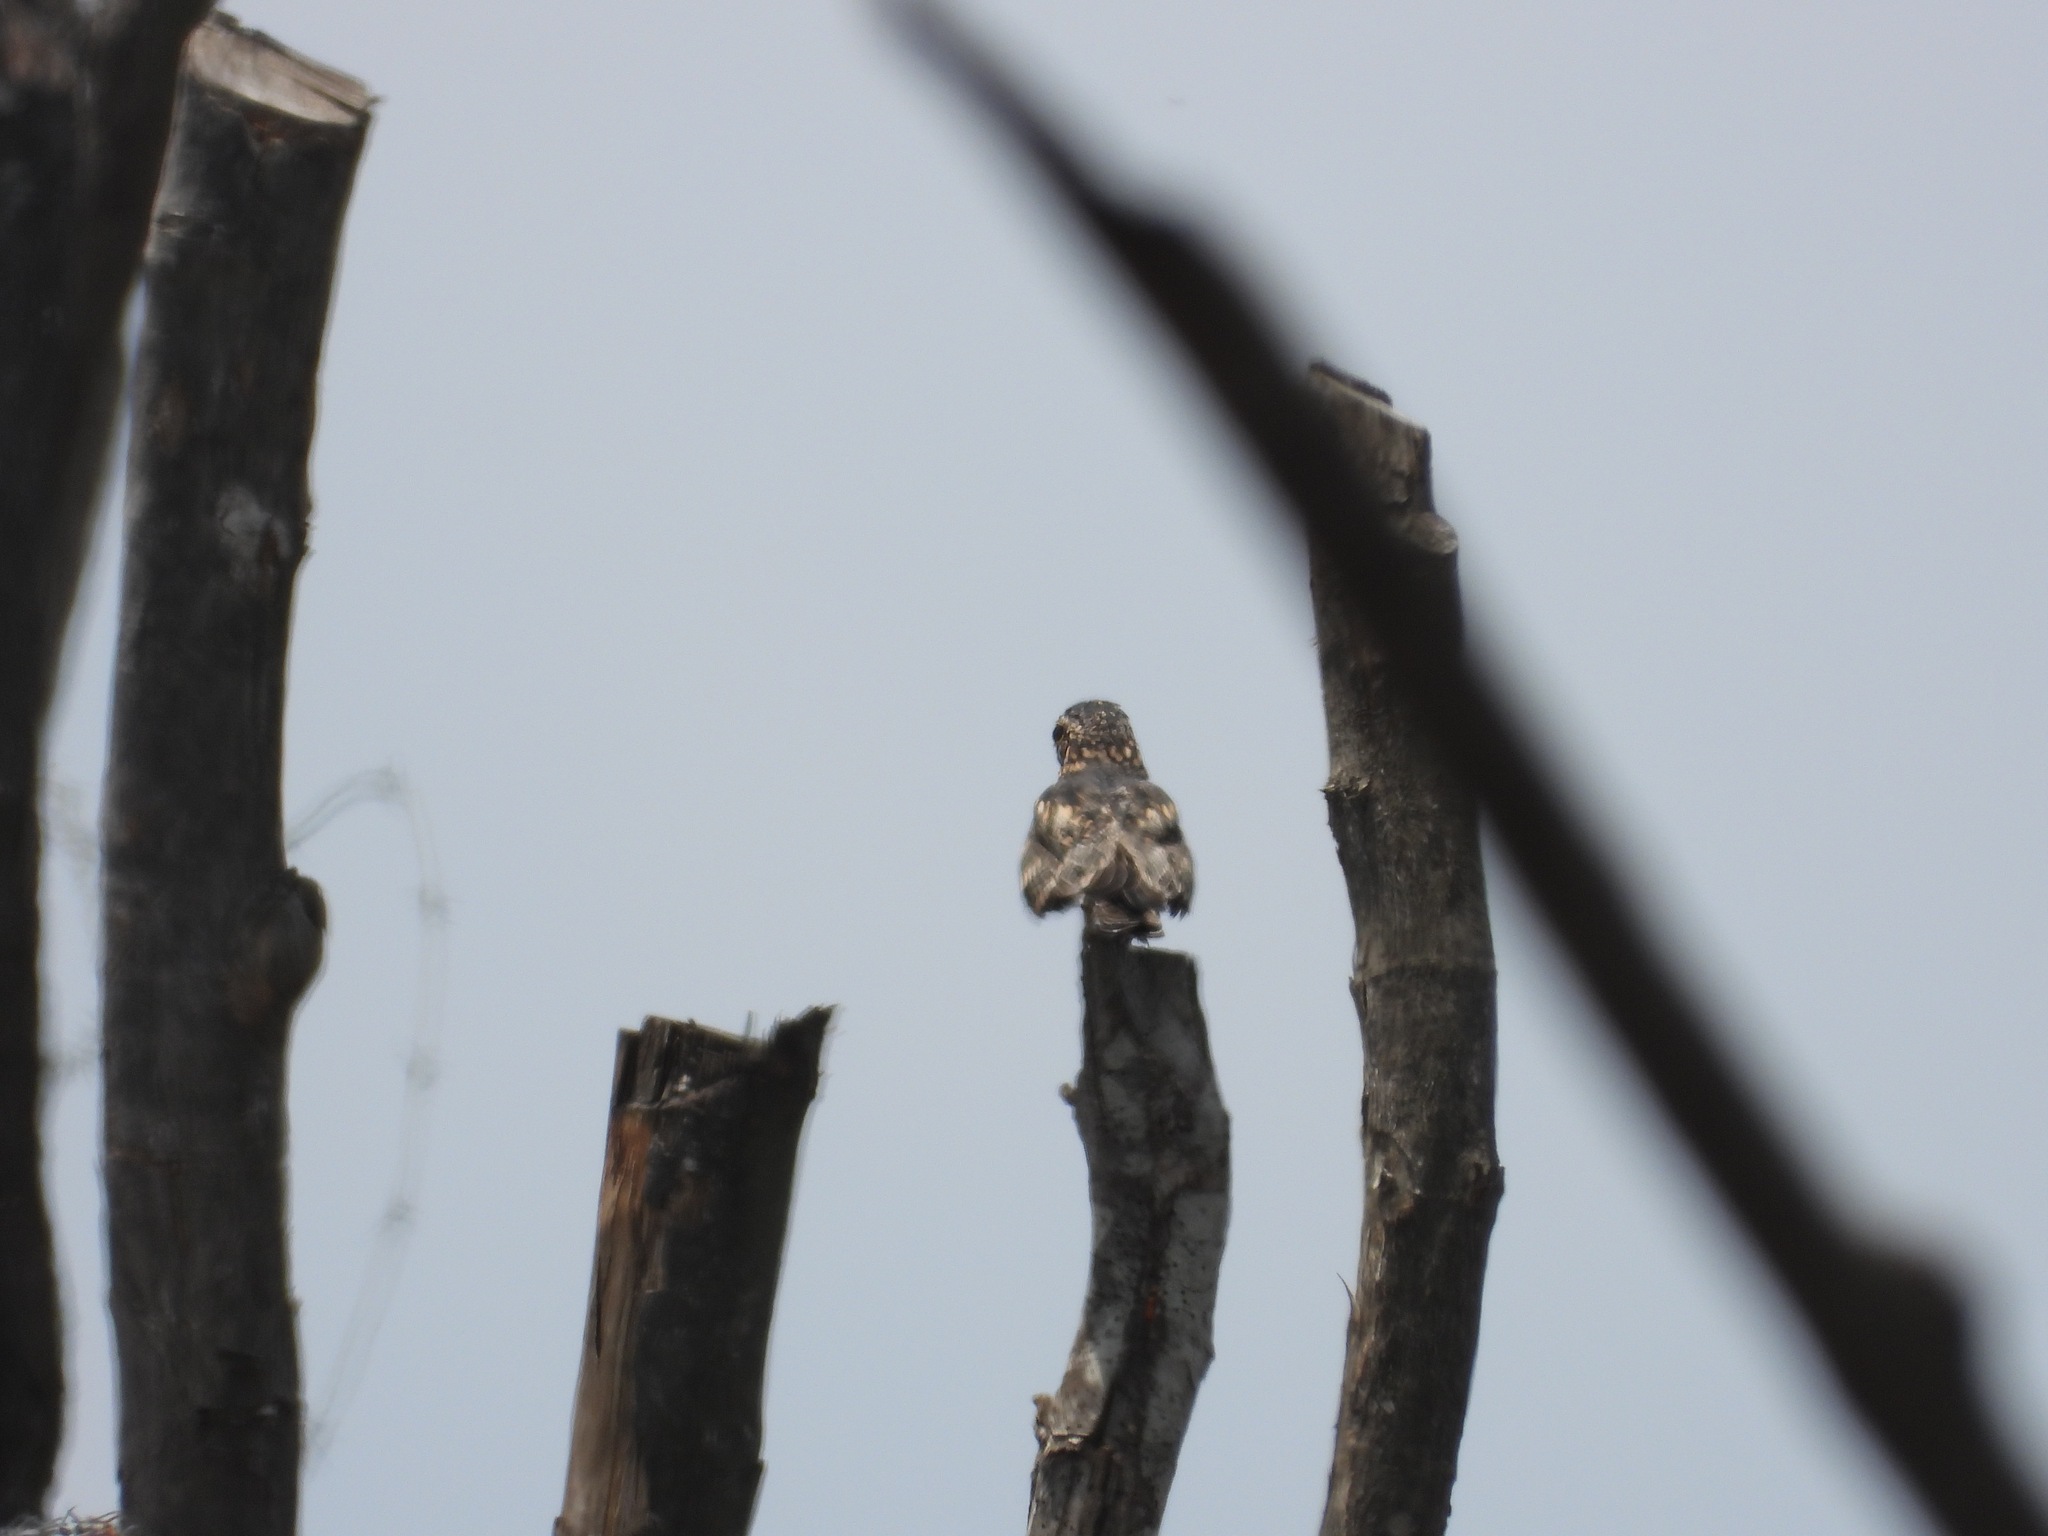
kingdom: Animalia
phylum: Chordata
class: Aves
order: Caprimulgiformes
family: Caprimulgidae
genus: Chordeiles
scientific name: Chordeiles acutipennis
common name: Lesser nighthawk
